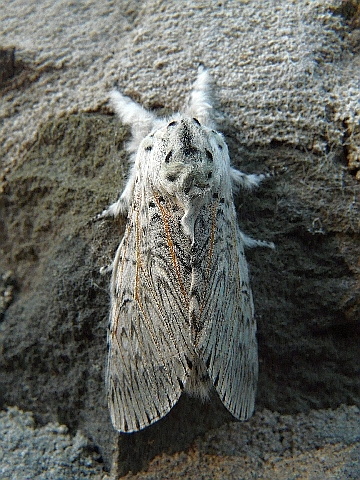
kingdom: Animalia
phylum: Arthropoda
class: Insecta
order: Lepidoptera
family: Notodontidae
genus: Cerura
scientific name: Cerura vinula
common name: Puss moth
